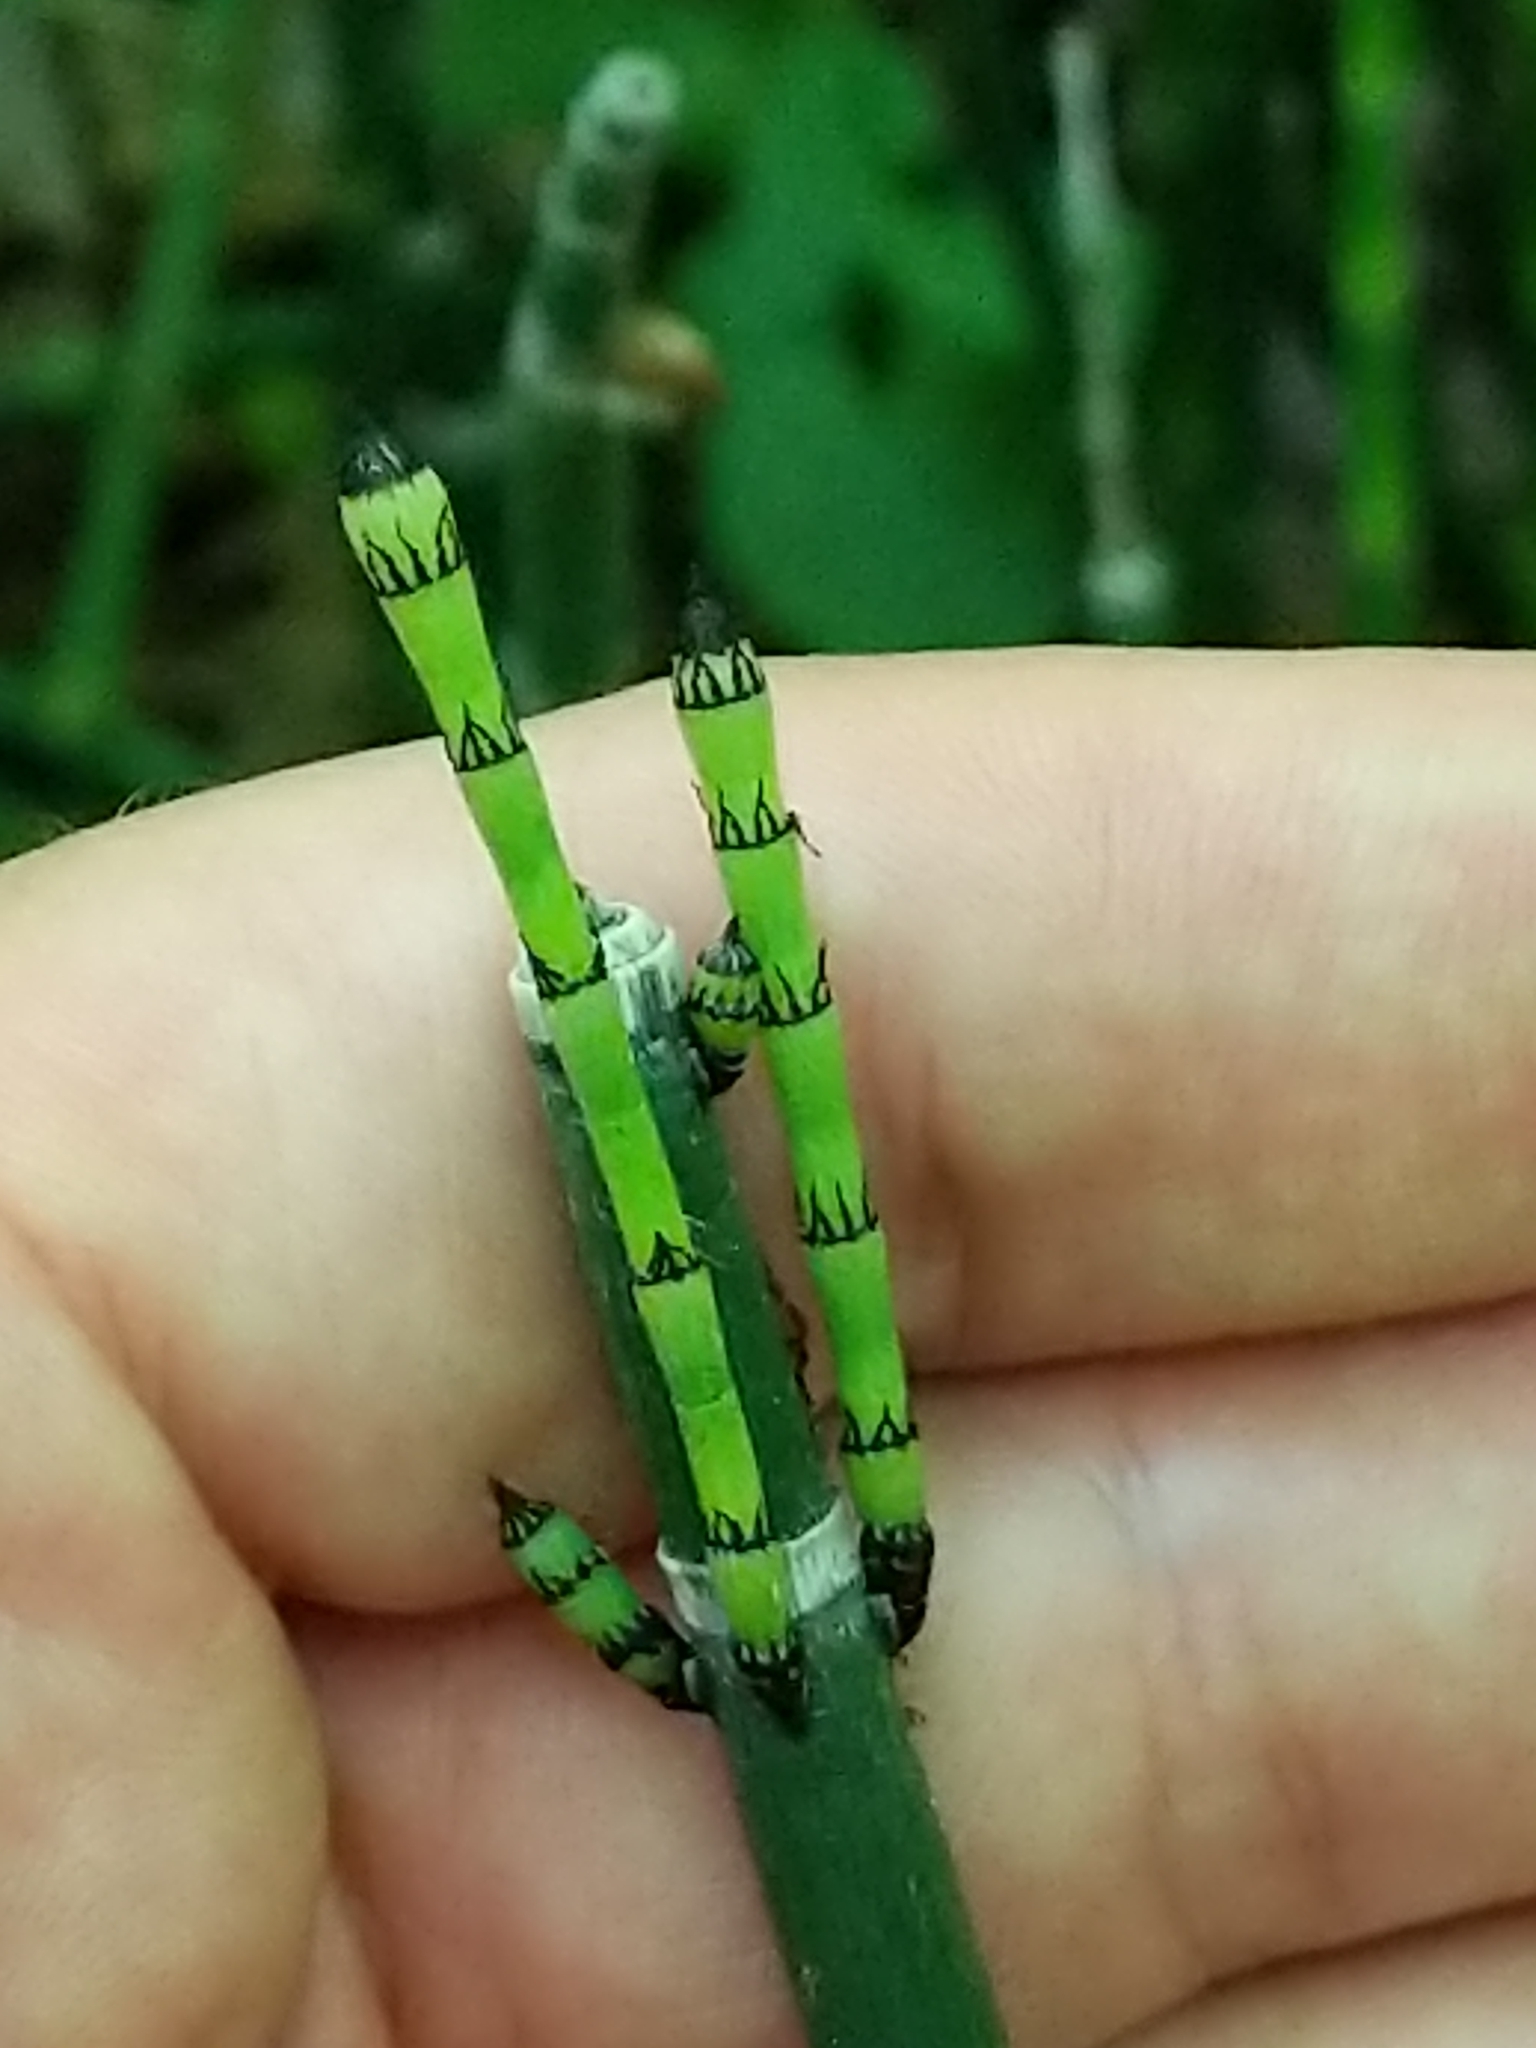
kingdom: Plantae
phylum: Tracheophyta
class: Polypodiopsida
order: Equisetales
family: Equisetaceae
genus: Equisetum
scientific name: Equisetum hyemale
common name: Rough horsetail
